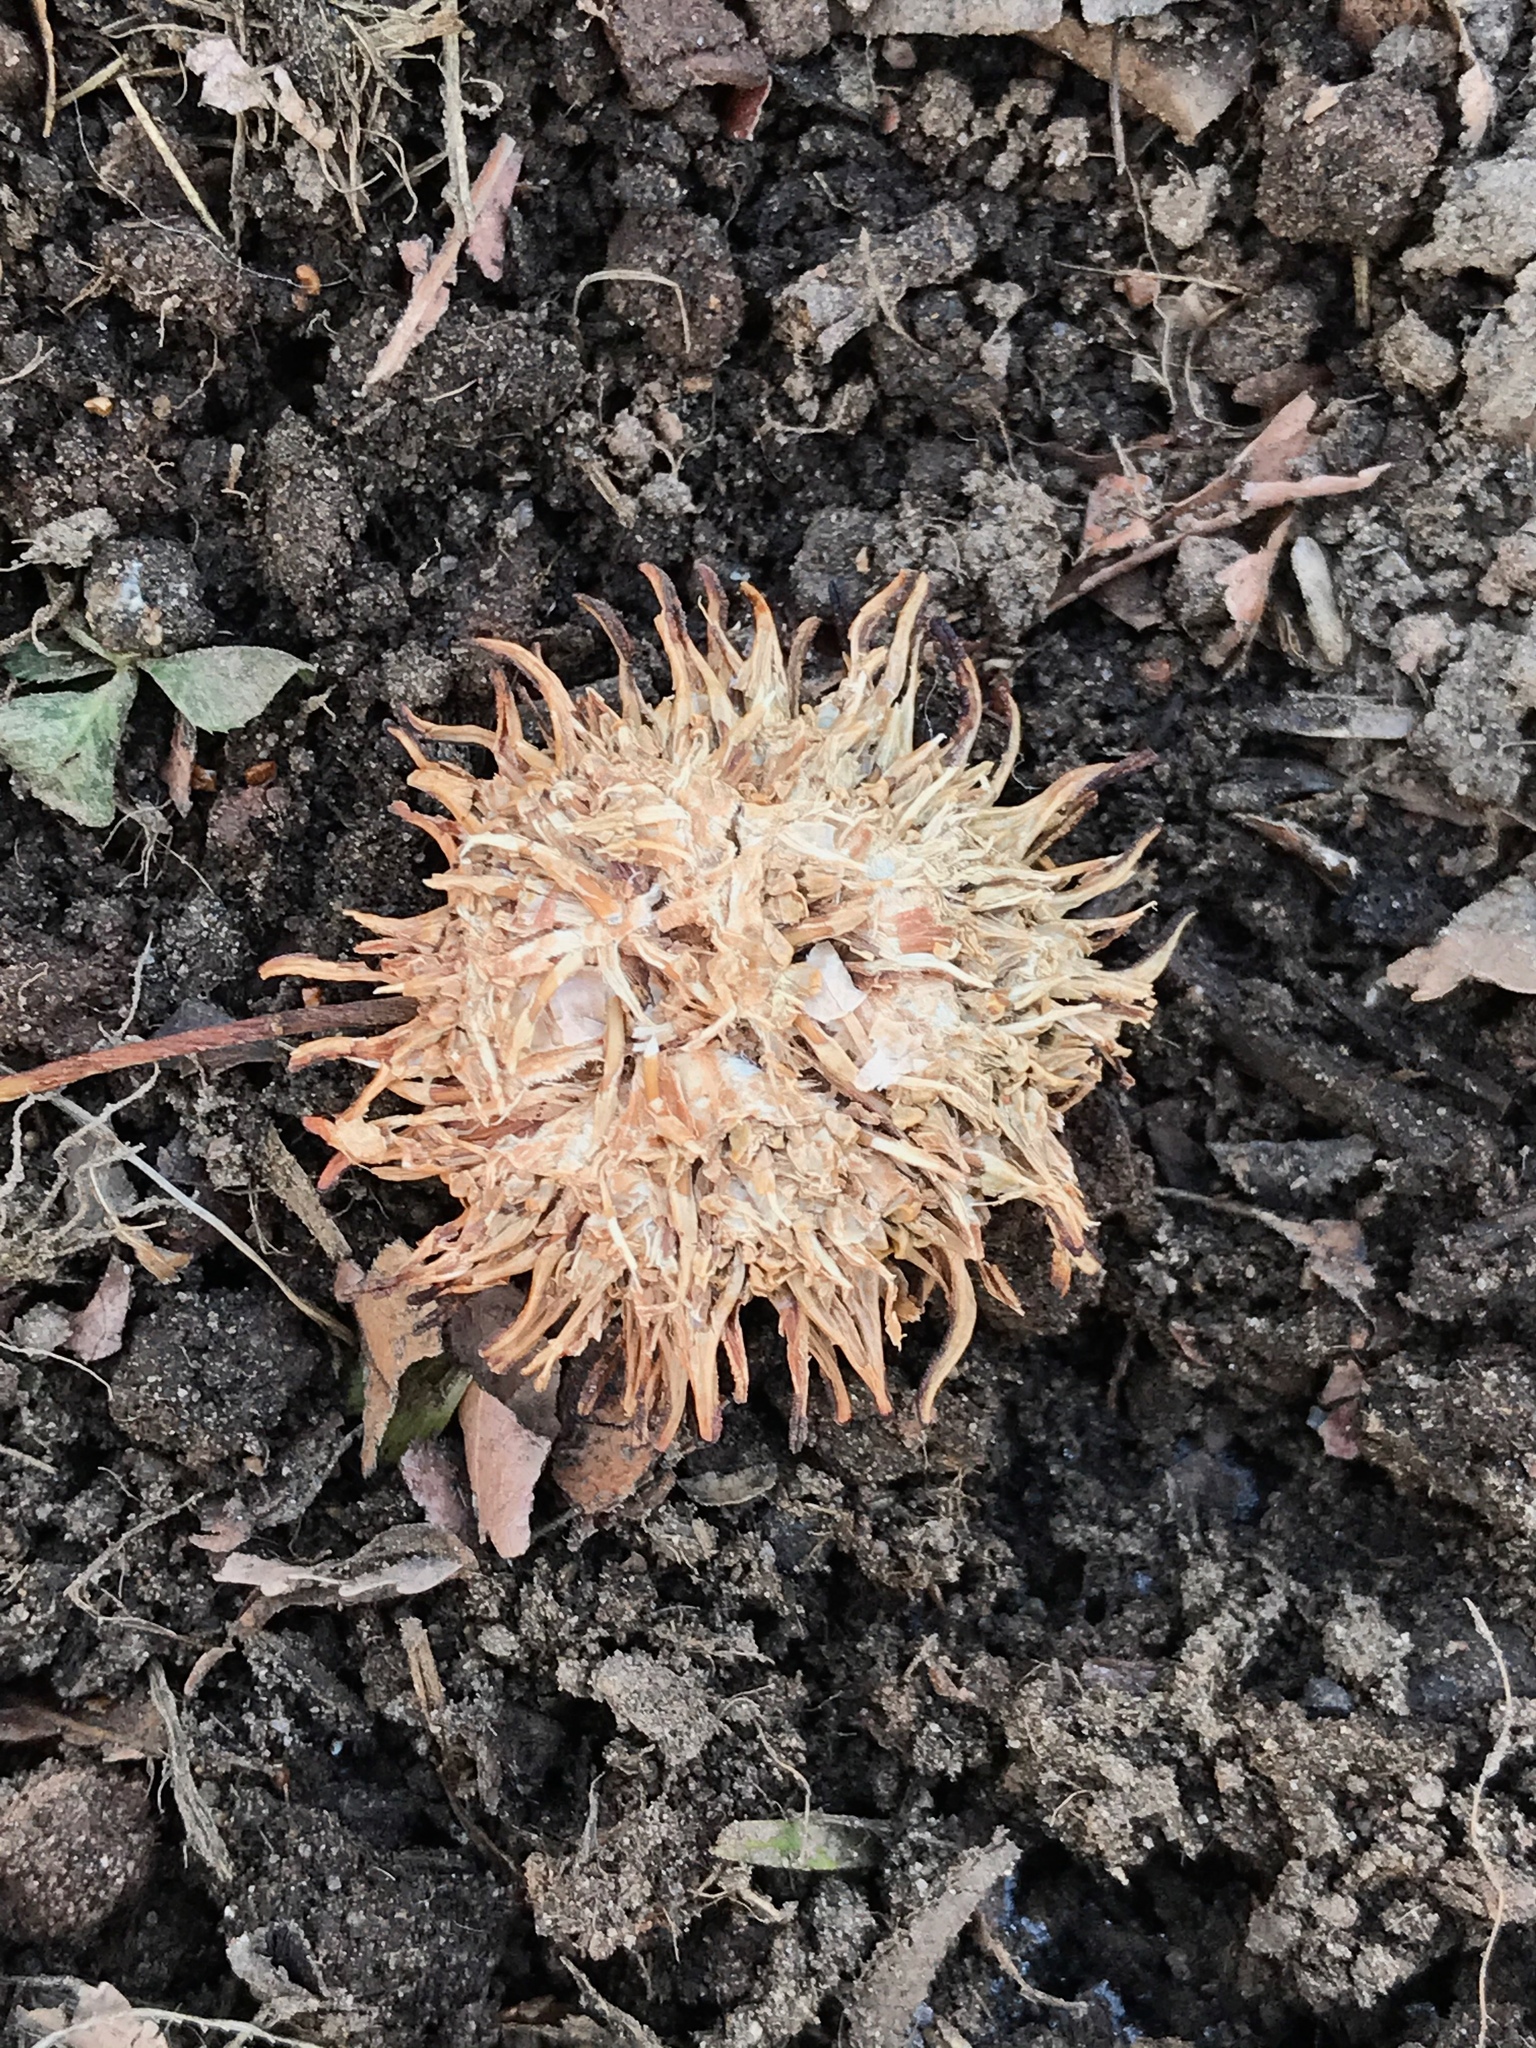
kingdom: Plantae
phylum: Tracheophyta
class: Magnoliopsida
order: Saxifragales
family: Altingiaceae
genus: Liquidambar
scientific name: Liquidambar styraciflua
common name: Sweet gum
